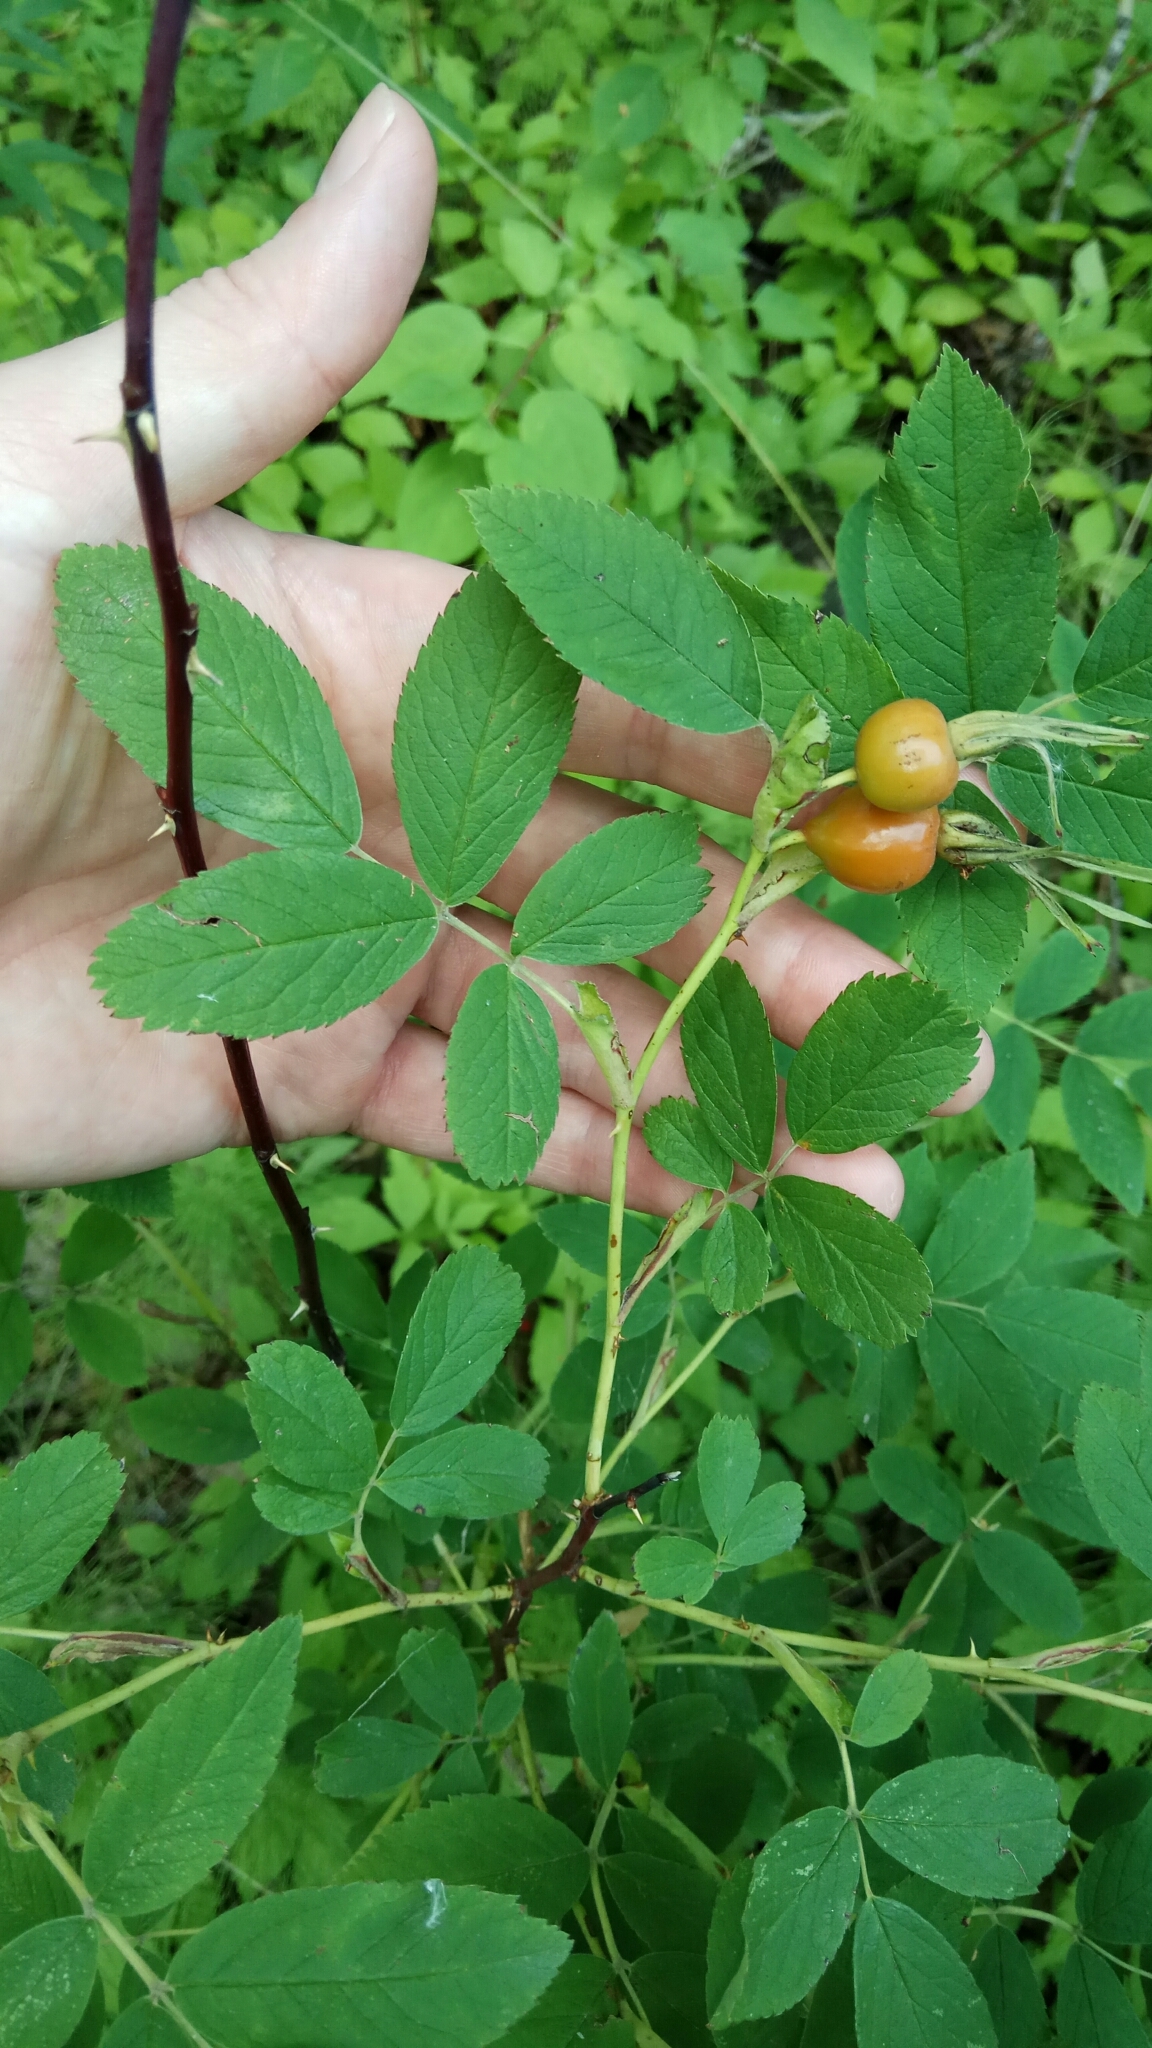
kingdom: Plantae
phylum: Tracheophyta
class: Magnoliopsida
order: Rosales
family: Rosaceae
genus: Rosa
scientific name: Rosa
